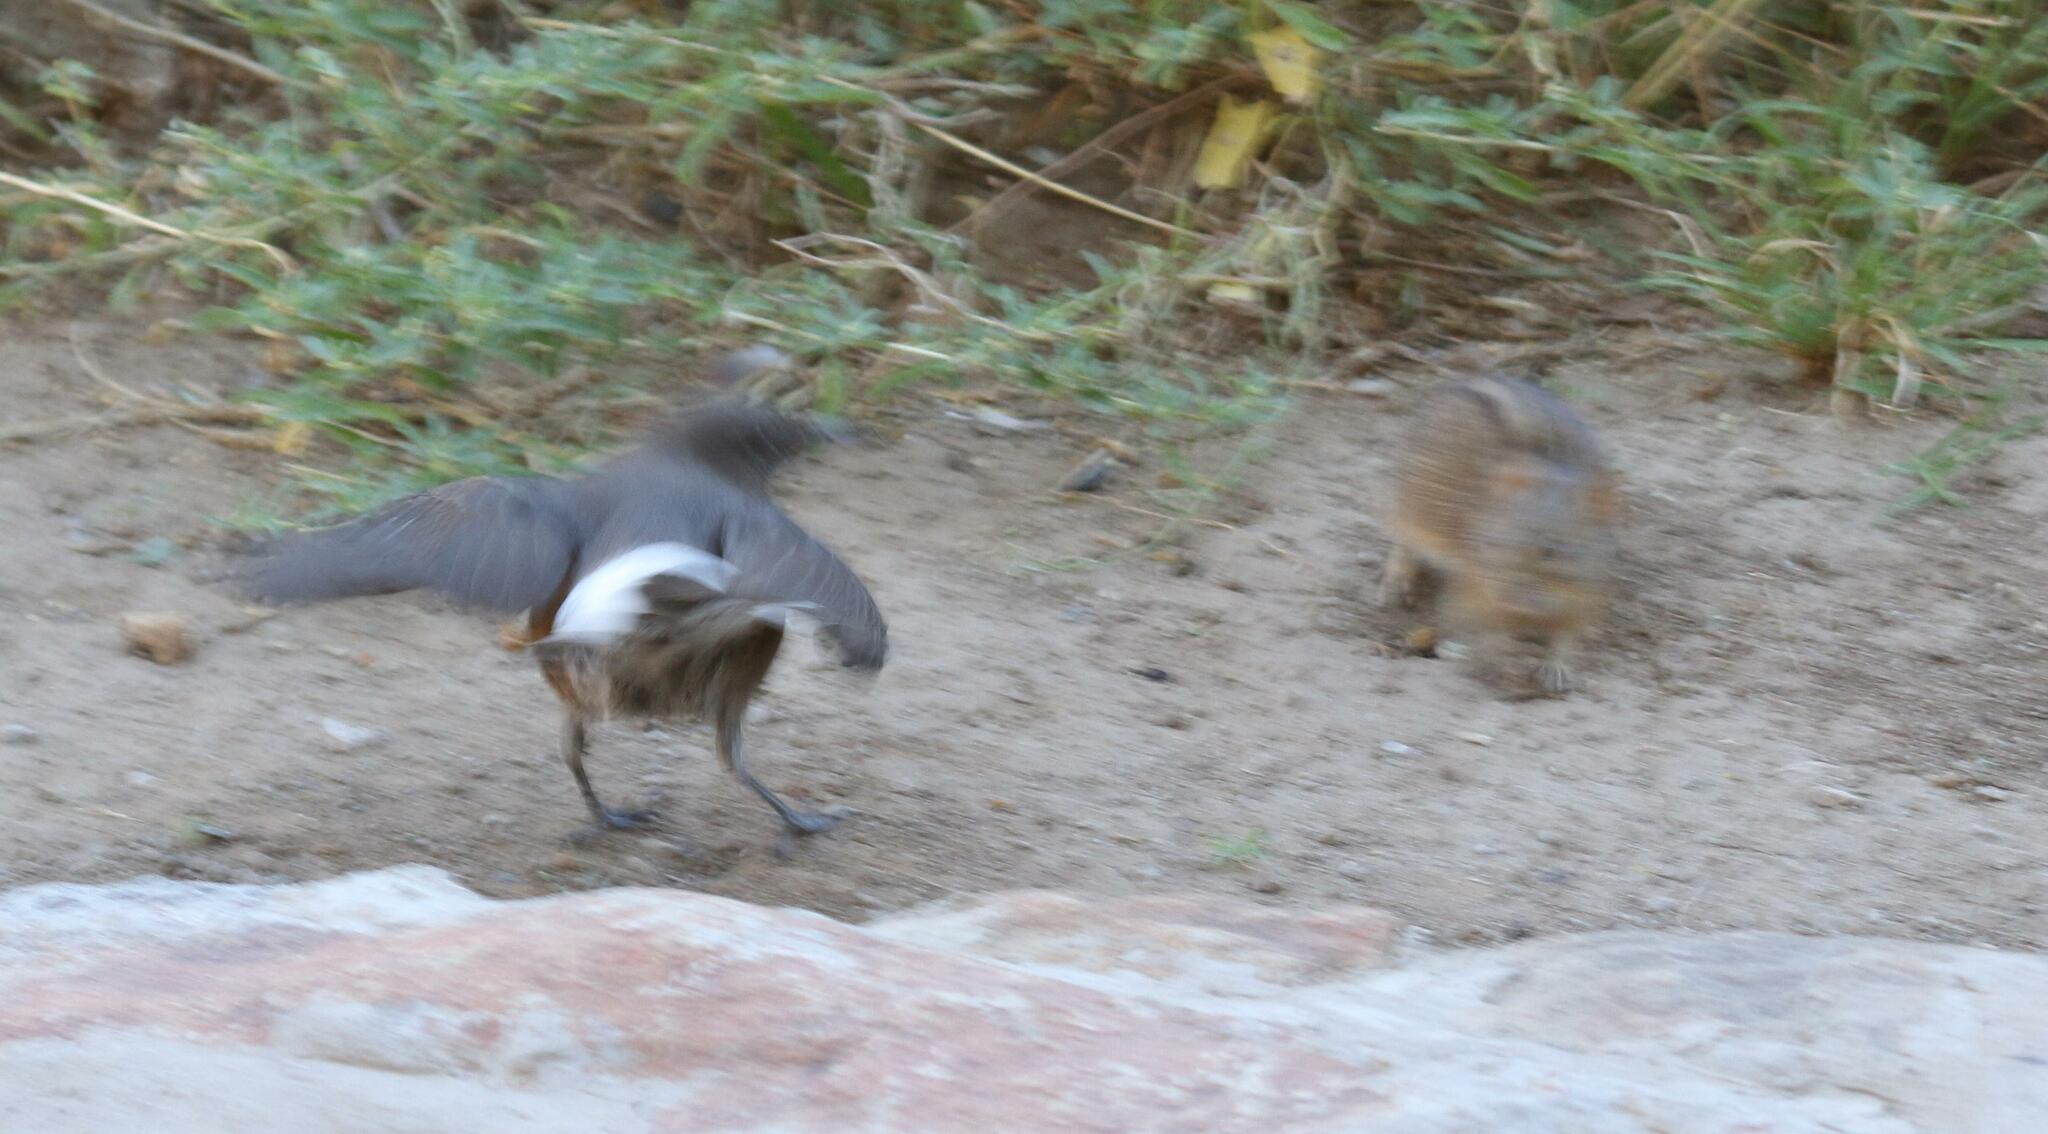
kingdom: Animalia
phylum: Chordata
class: Mammalia
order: Rodentia
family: Muridae
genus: Rhabdomys
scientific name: Rhabdomys pumilio
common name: Xeric four-striped grass rat
